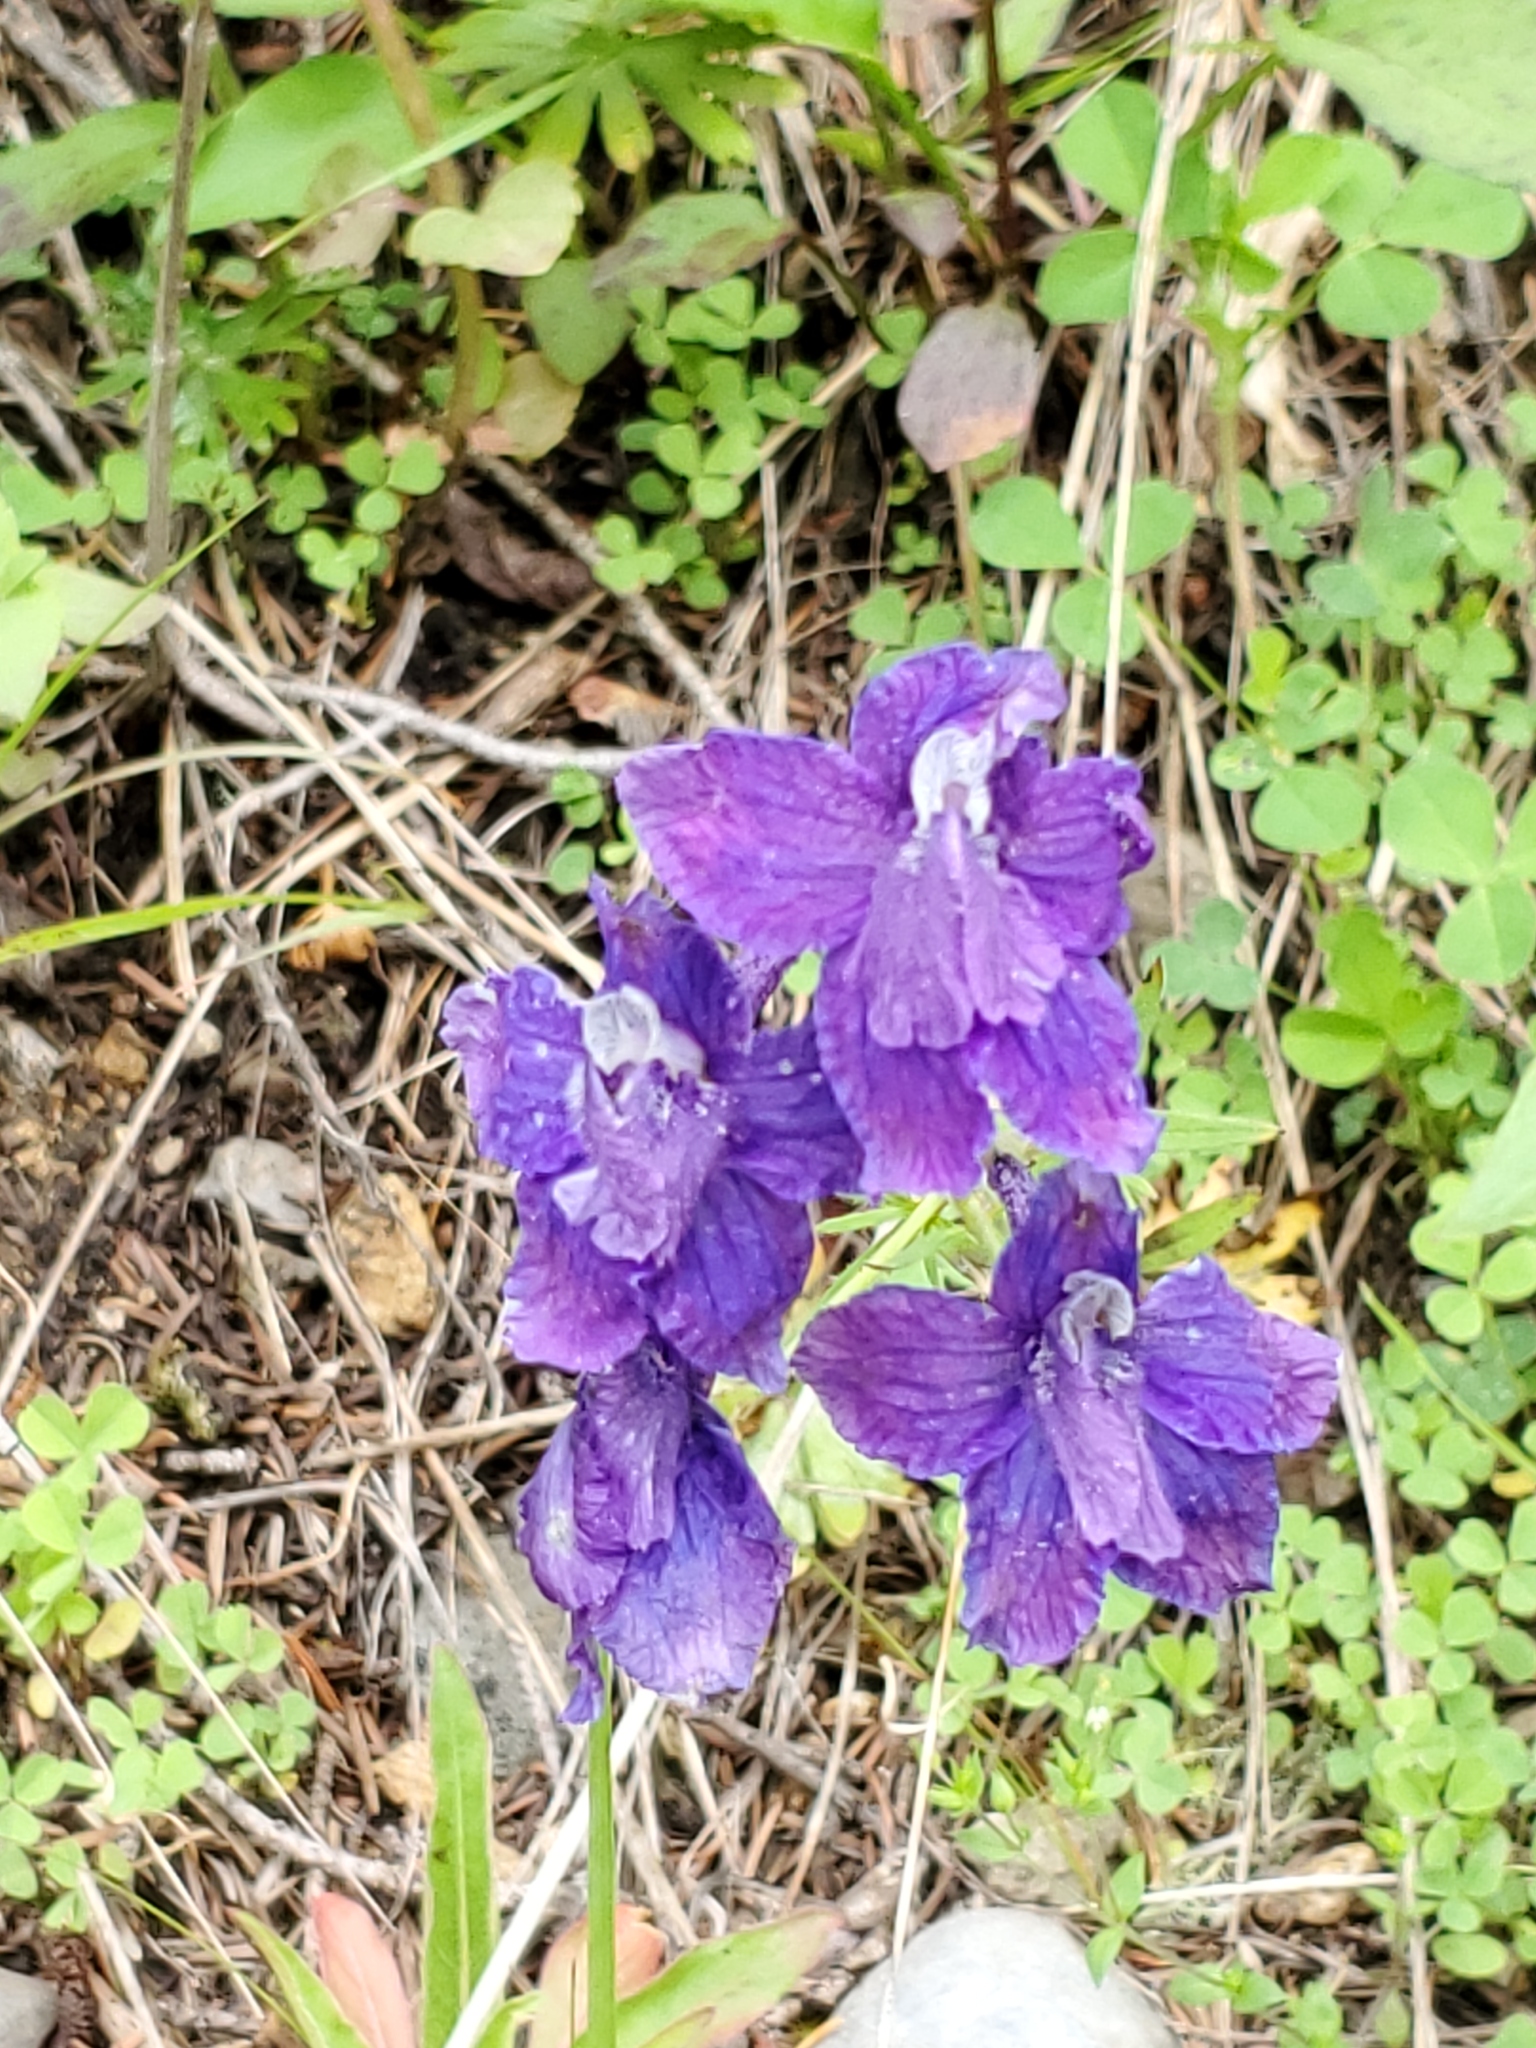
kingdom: Plantae
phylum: Tracheophyta
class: Magnoliopsida
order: Ranunculales
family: Ranunculaceae
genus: Delphinium
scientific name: Delphinium bicolor
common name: Low larkspur
